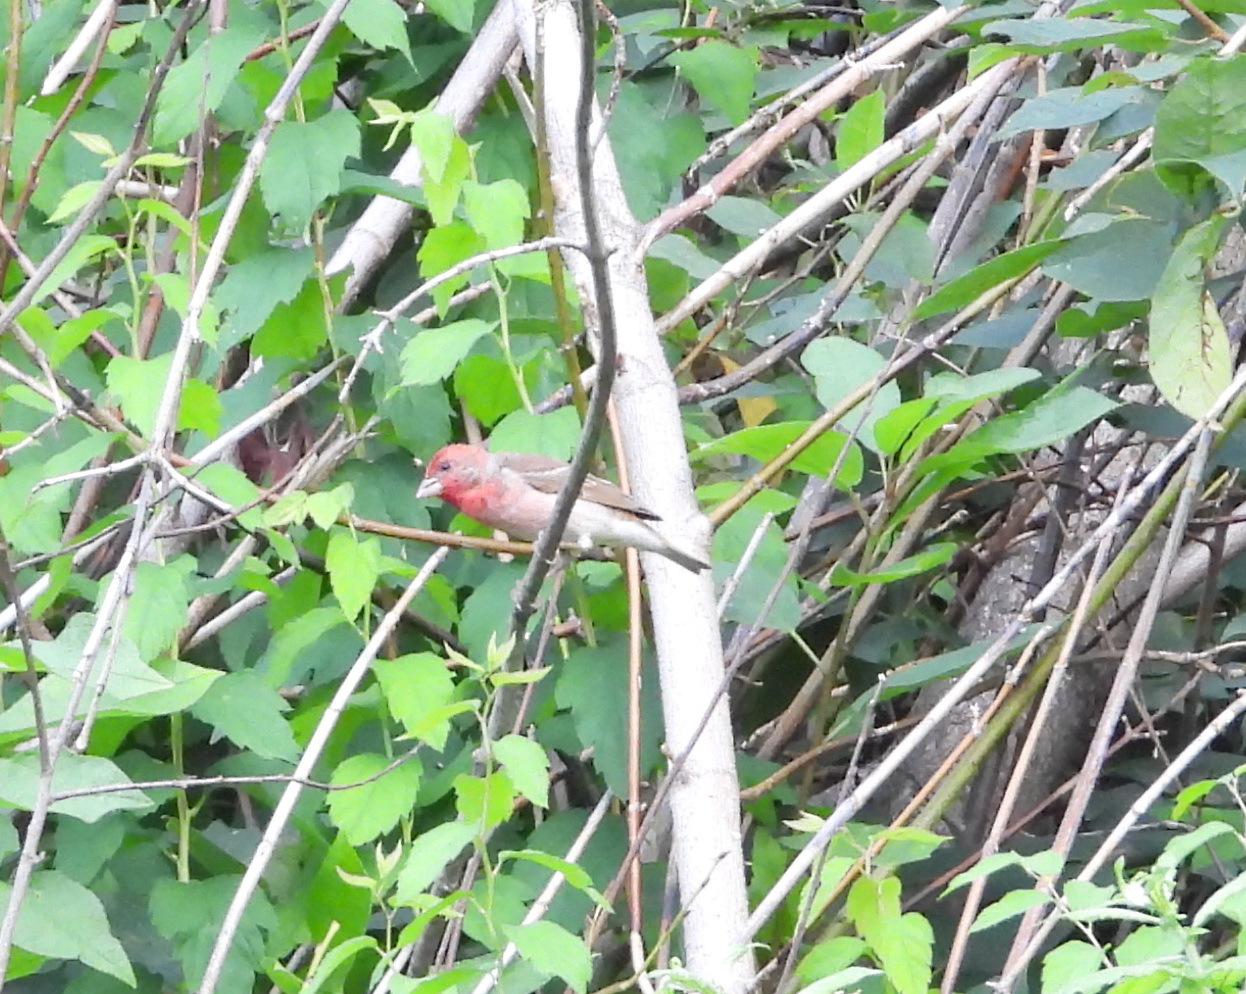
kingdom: Animalia
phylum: Chordata
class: Aves
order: Passeriformes
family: Fringillidae
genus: Carpodacus
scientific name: Carpodacus erythrinus
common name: Common rosefinch
